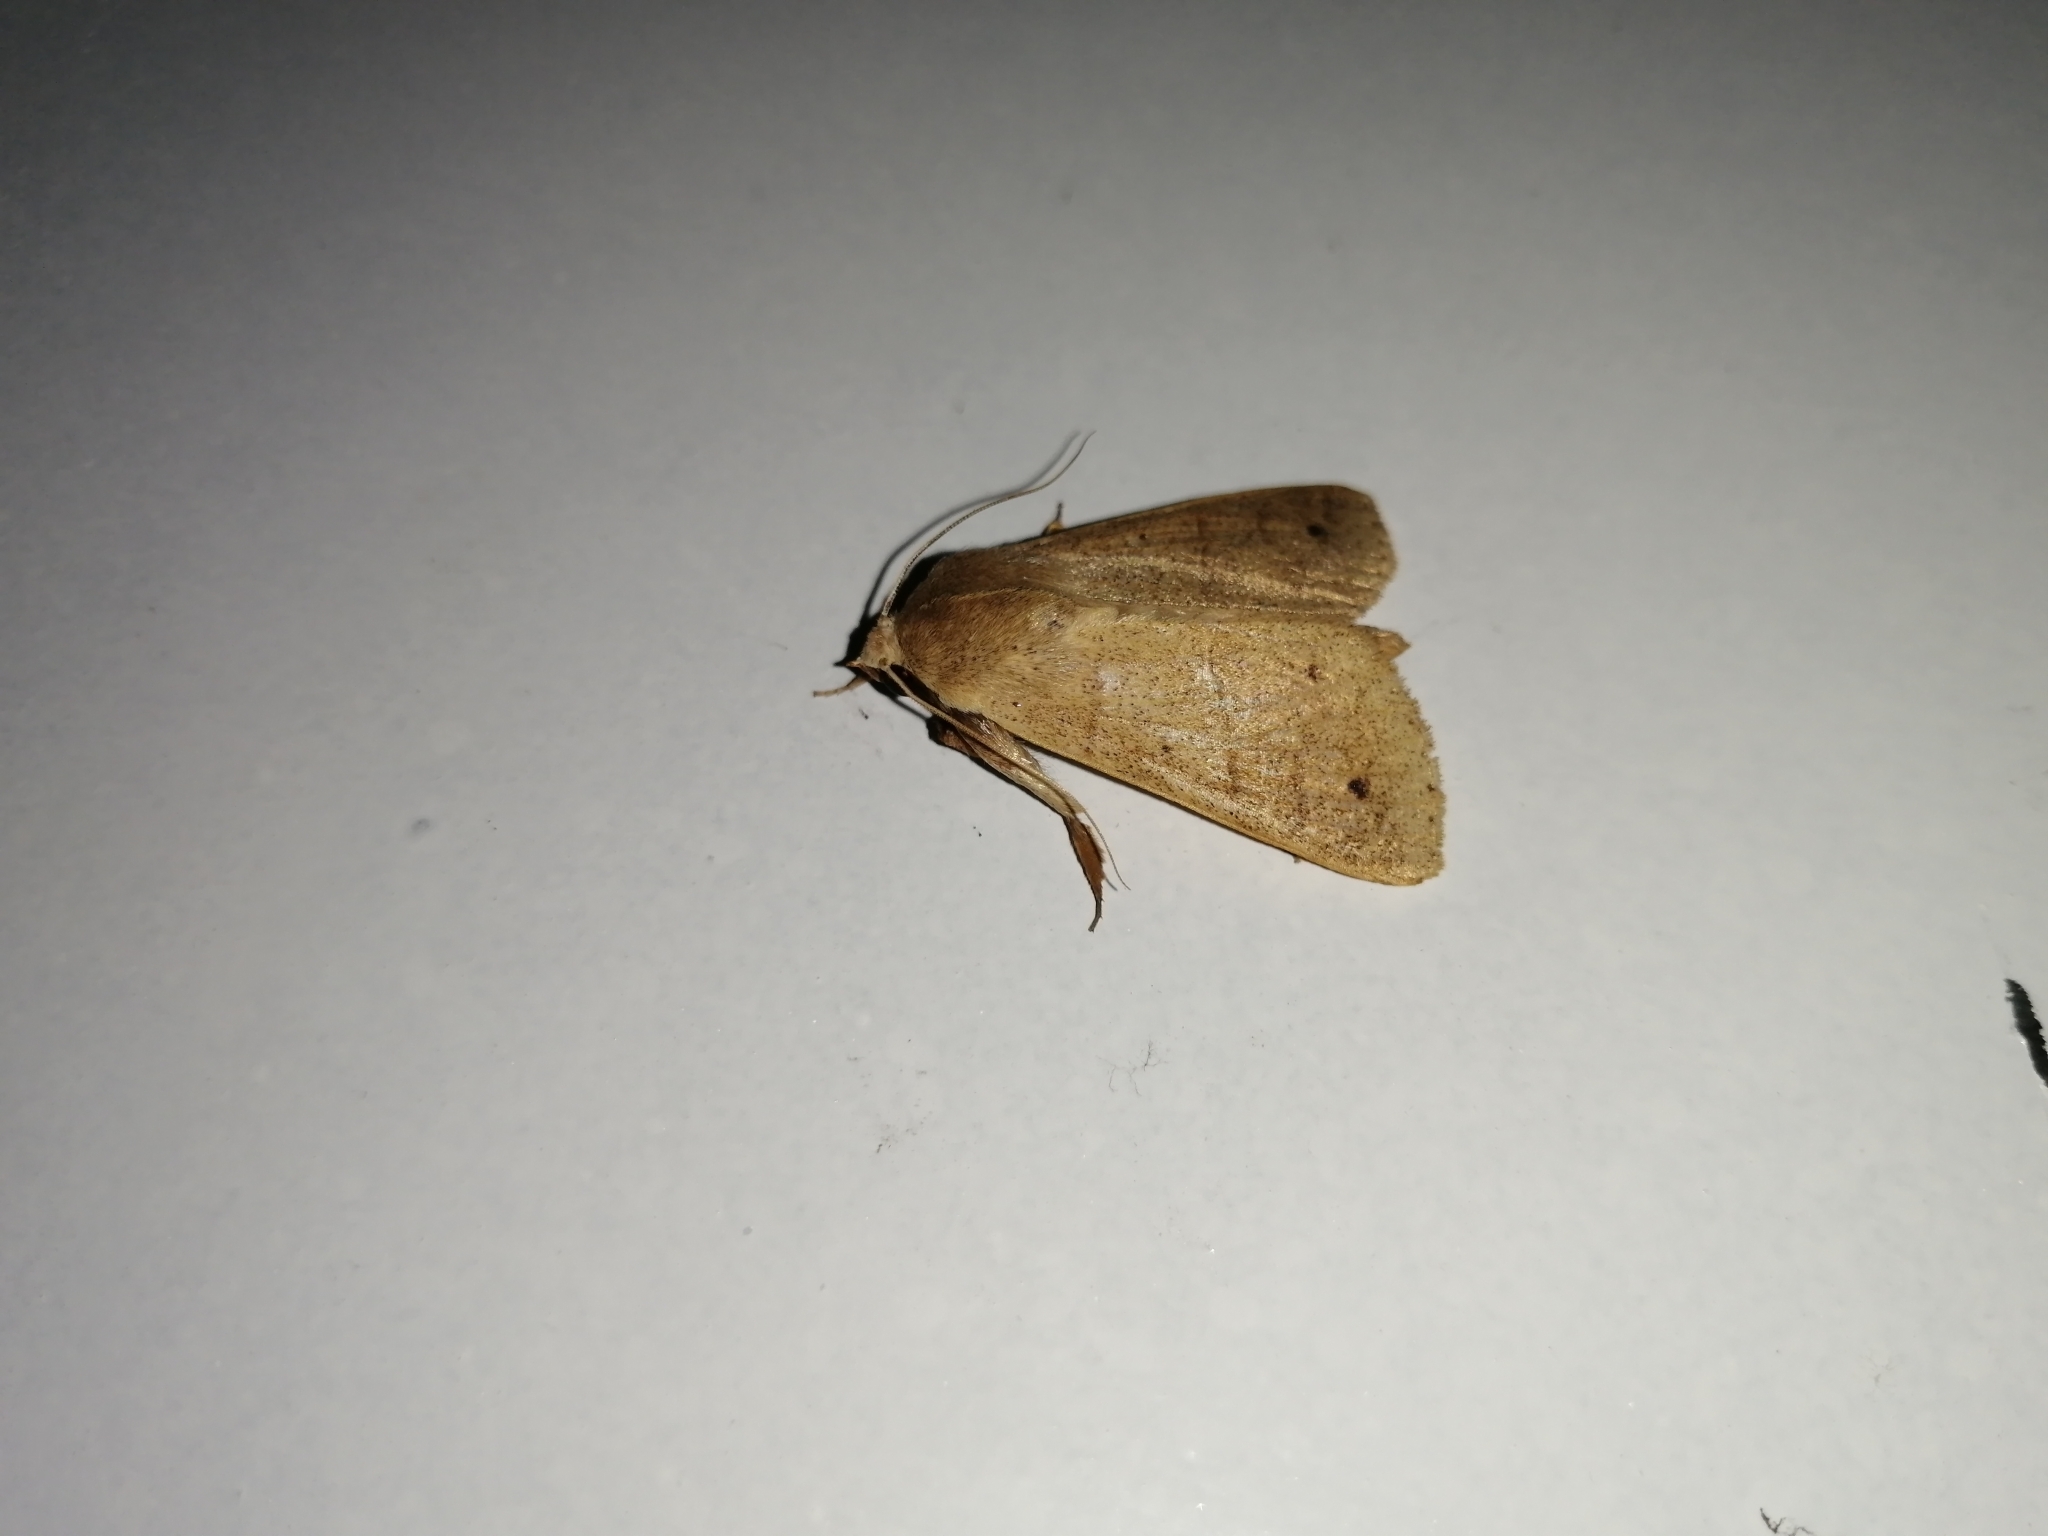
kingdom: Animalia
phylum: Arthropoda
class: Insecta
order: Lepidoptera
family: Noctuidae
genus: Marimatha
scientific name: Marimatha nigrofimbria
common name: Black-bordered lemon moth
